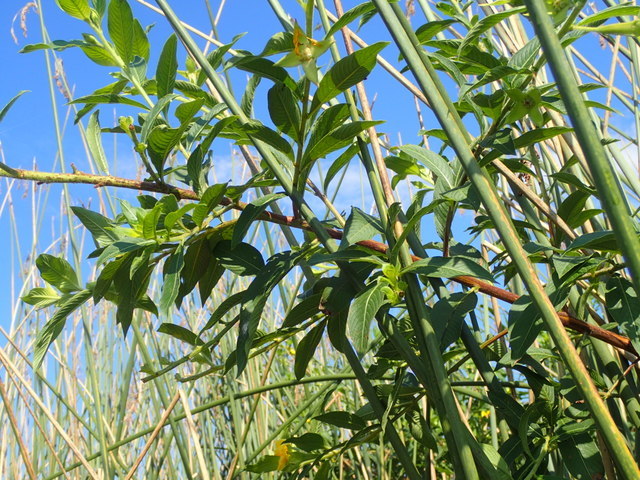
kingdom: Plantae
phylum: Tracheophyta
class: Magnoliopsida
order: Myrtales
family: Onagraceae
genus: Ludwigia
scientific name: Ludwigia peruviana
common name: Peruvian primrose-willow
